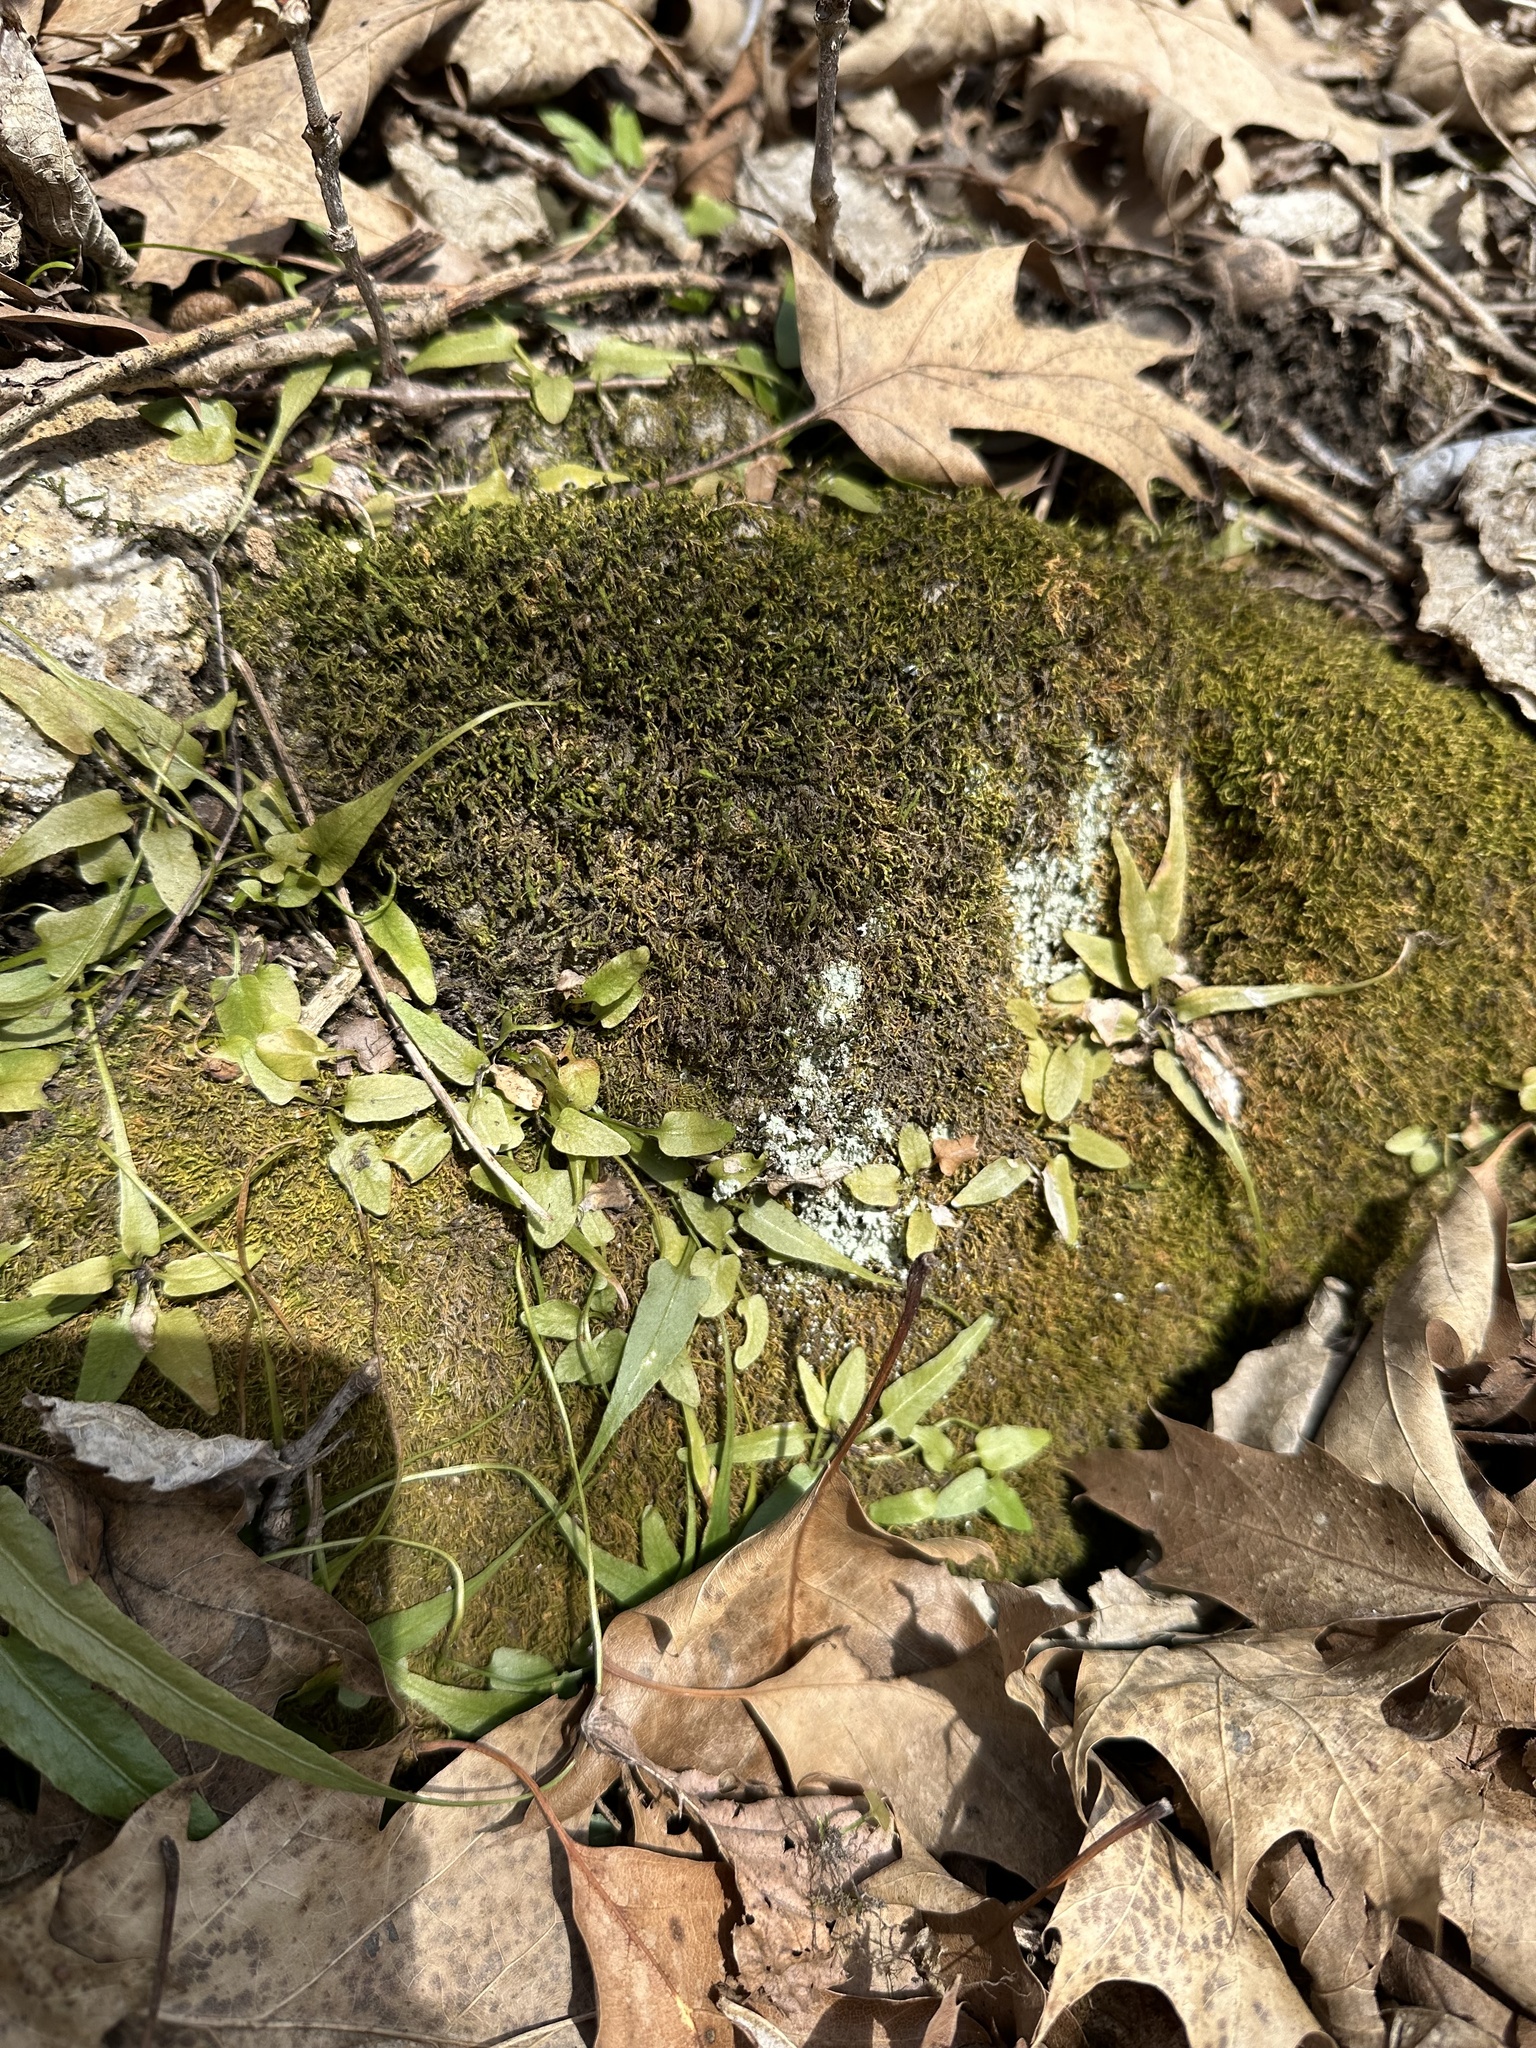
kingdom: Plantae
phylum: Tracheophyta
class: Polypodiopsida
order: Polypodiales
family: Aspleniaceae
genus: Asplenium
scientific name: Asplenium rhizophyllum
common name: Walking fern
